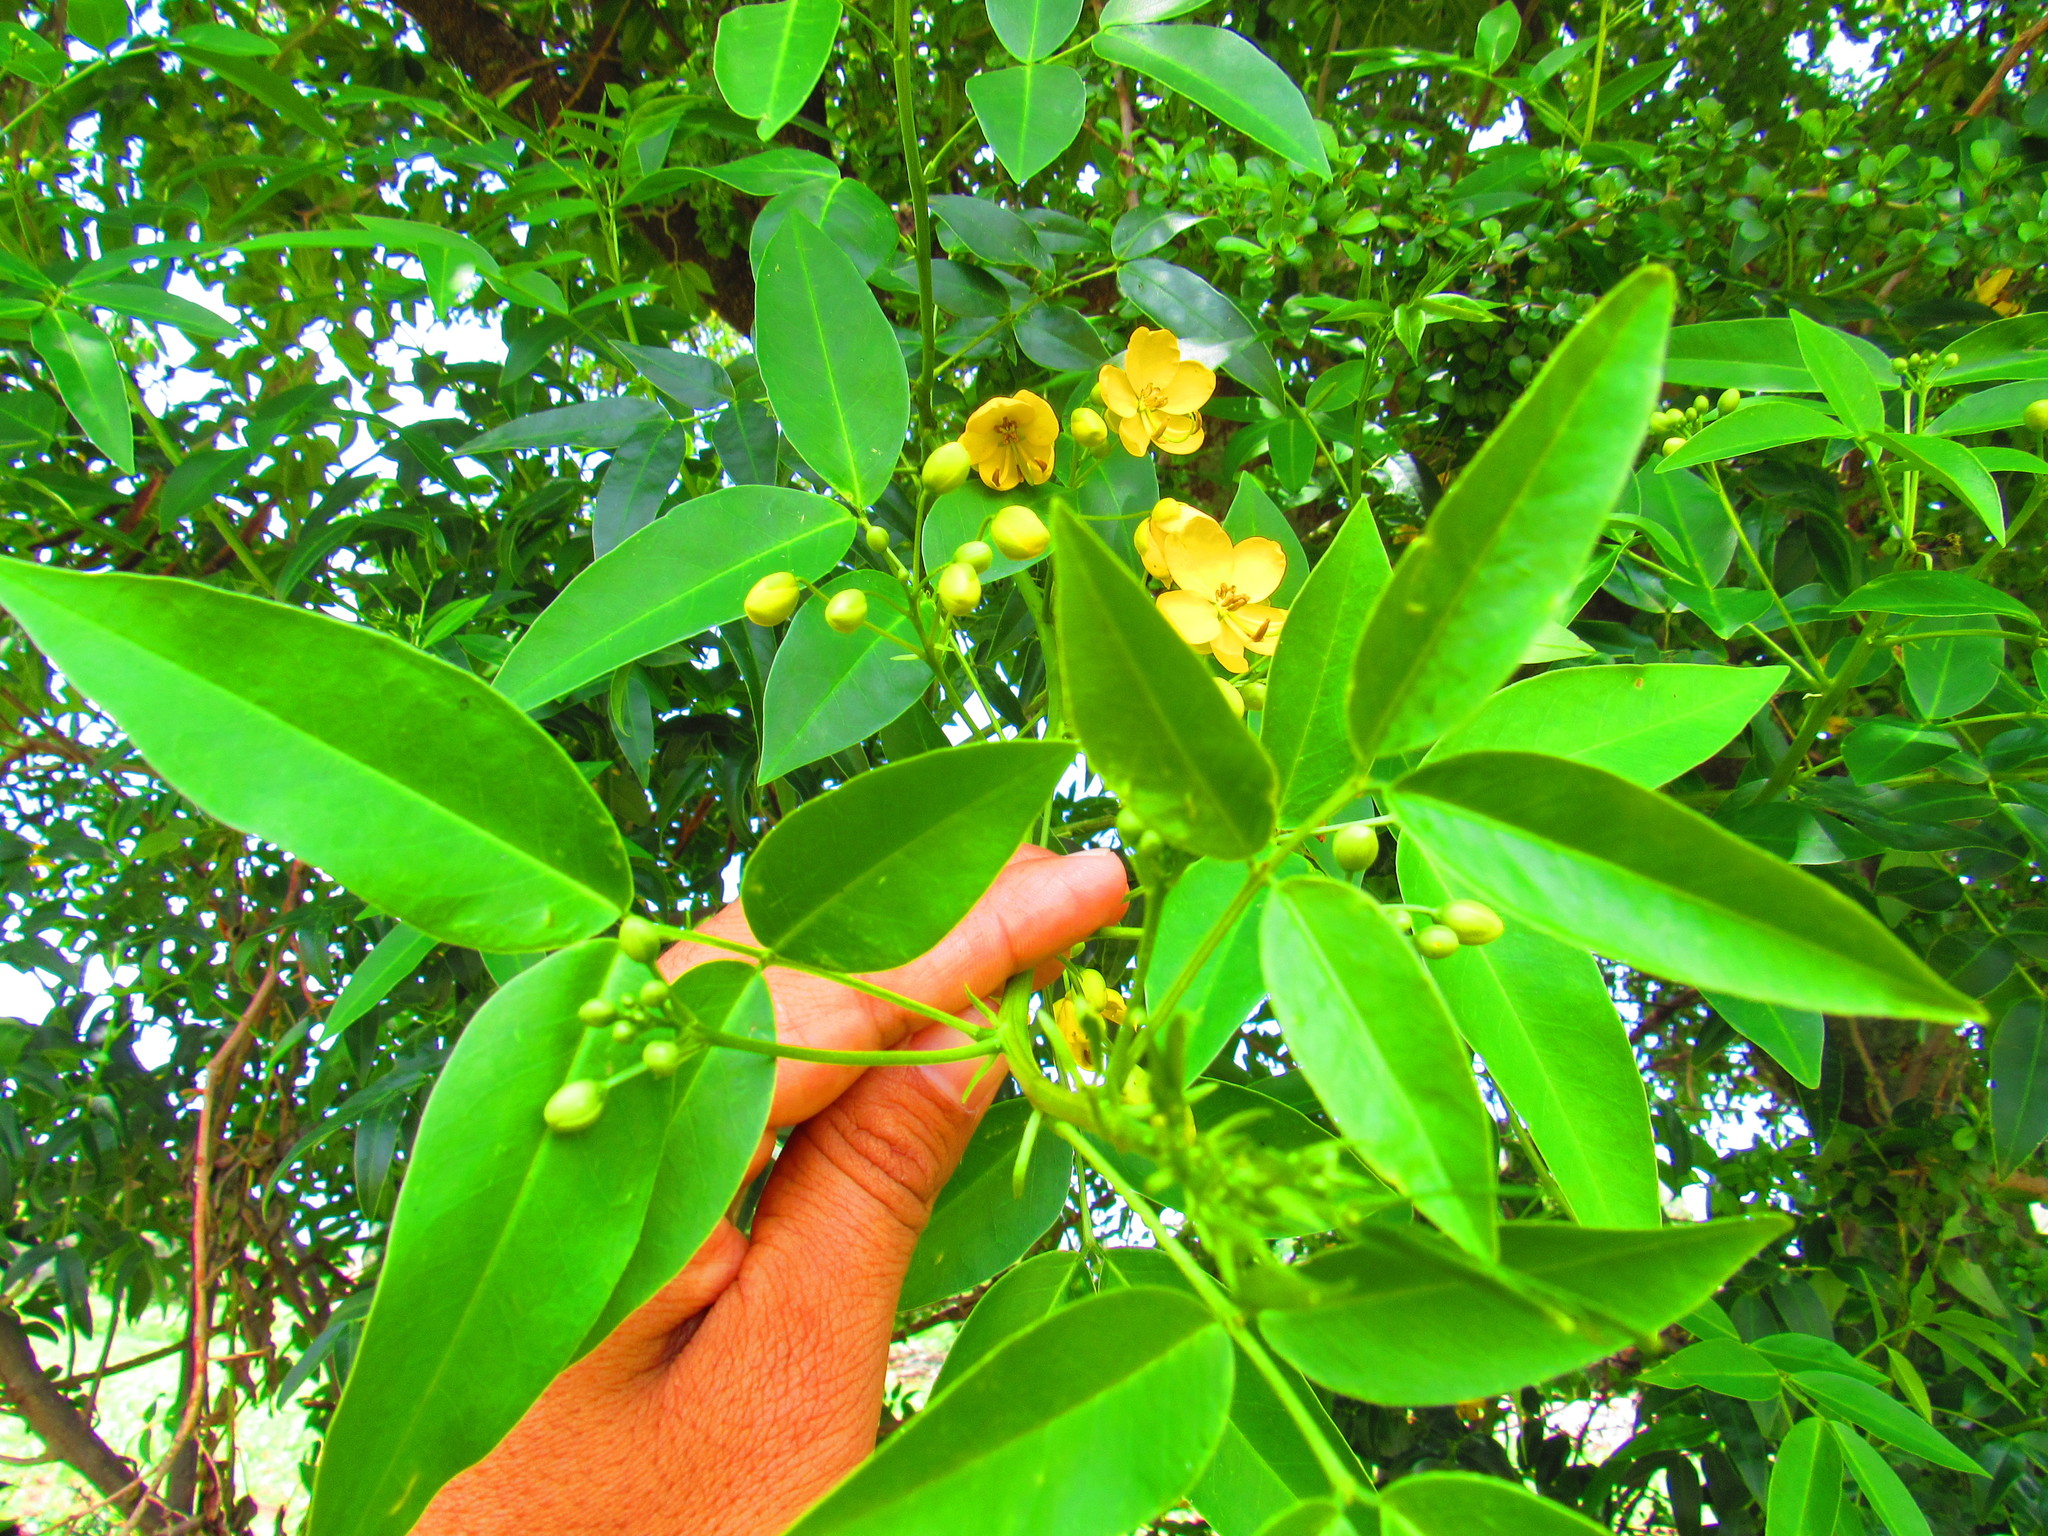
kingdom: Plantae
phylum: Tracheophyta
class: Magnoliopsida
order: Fabales
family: Fabaceae
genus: Senna
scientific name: Senna septemtrionalis
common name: Arsenic bush
